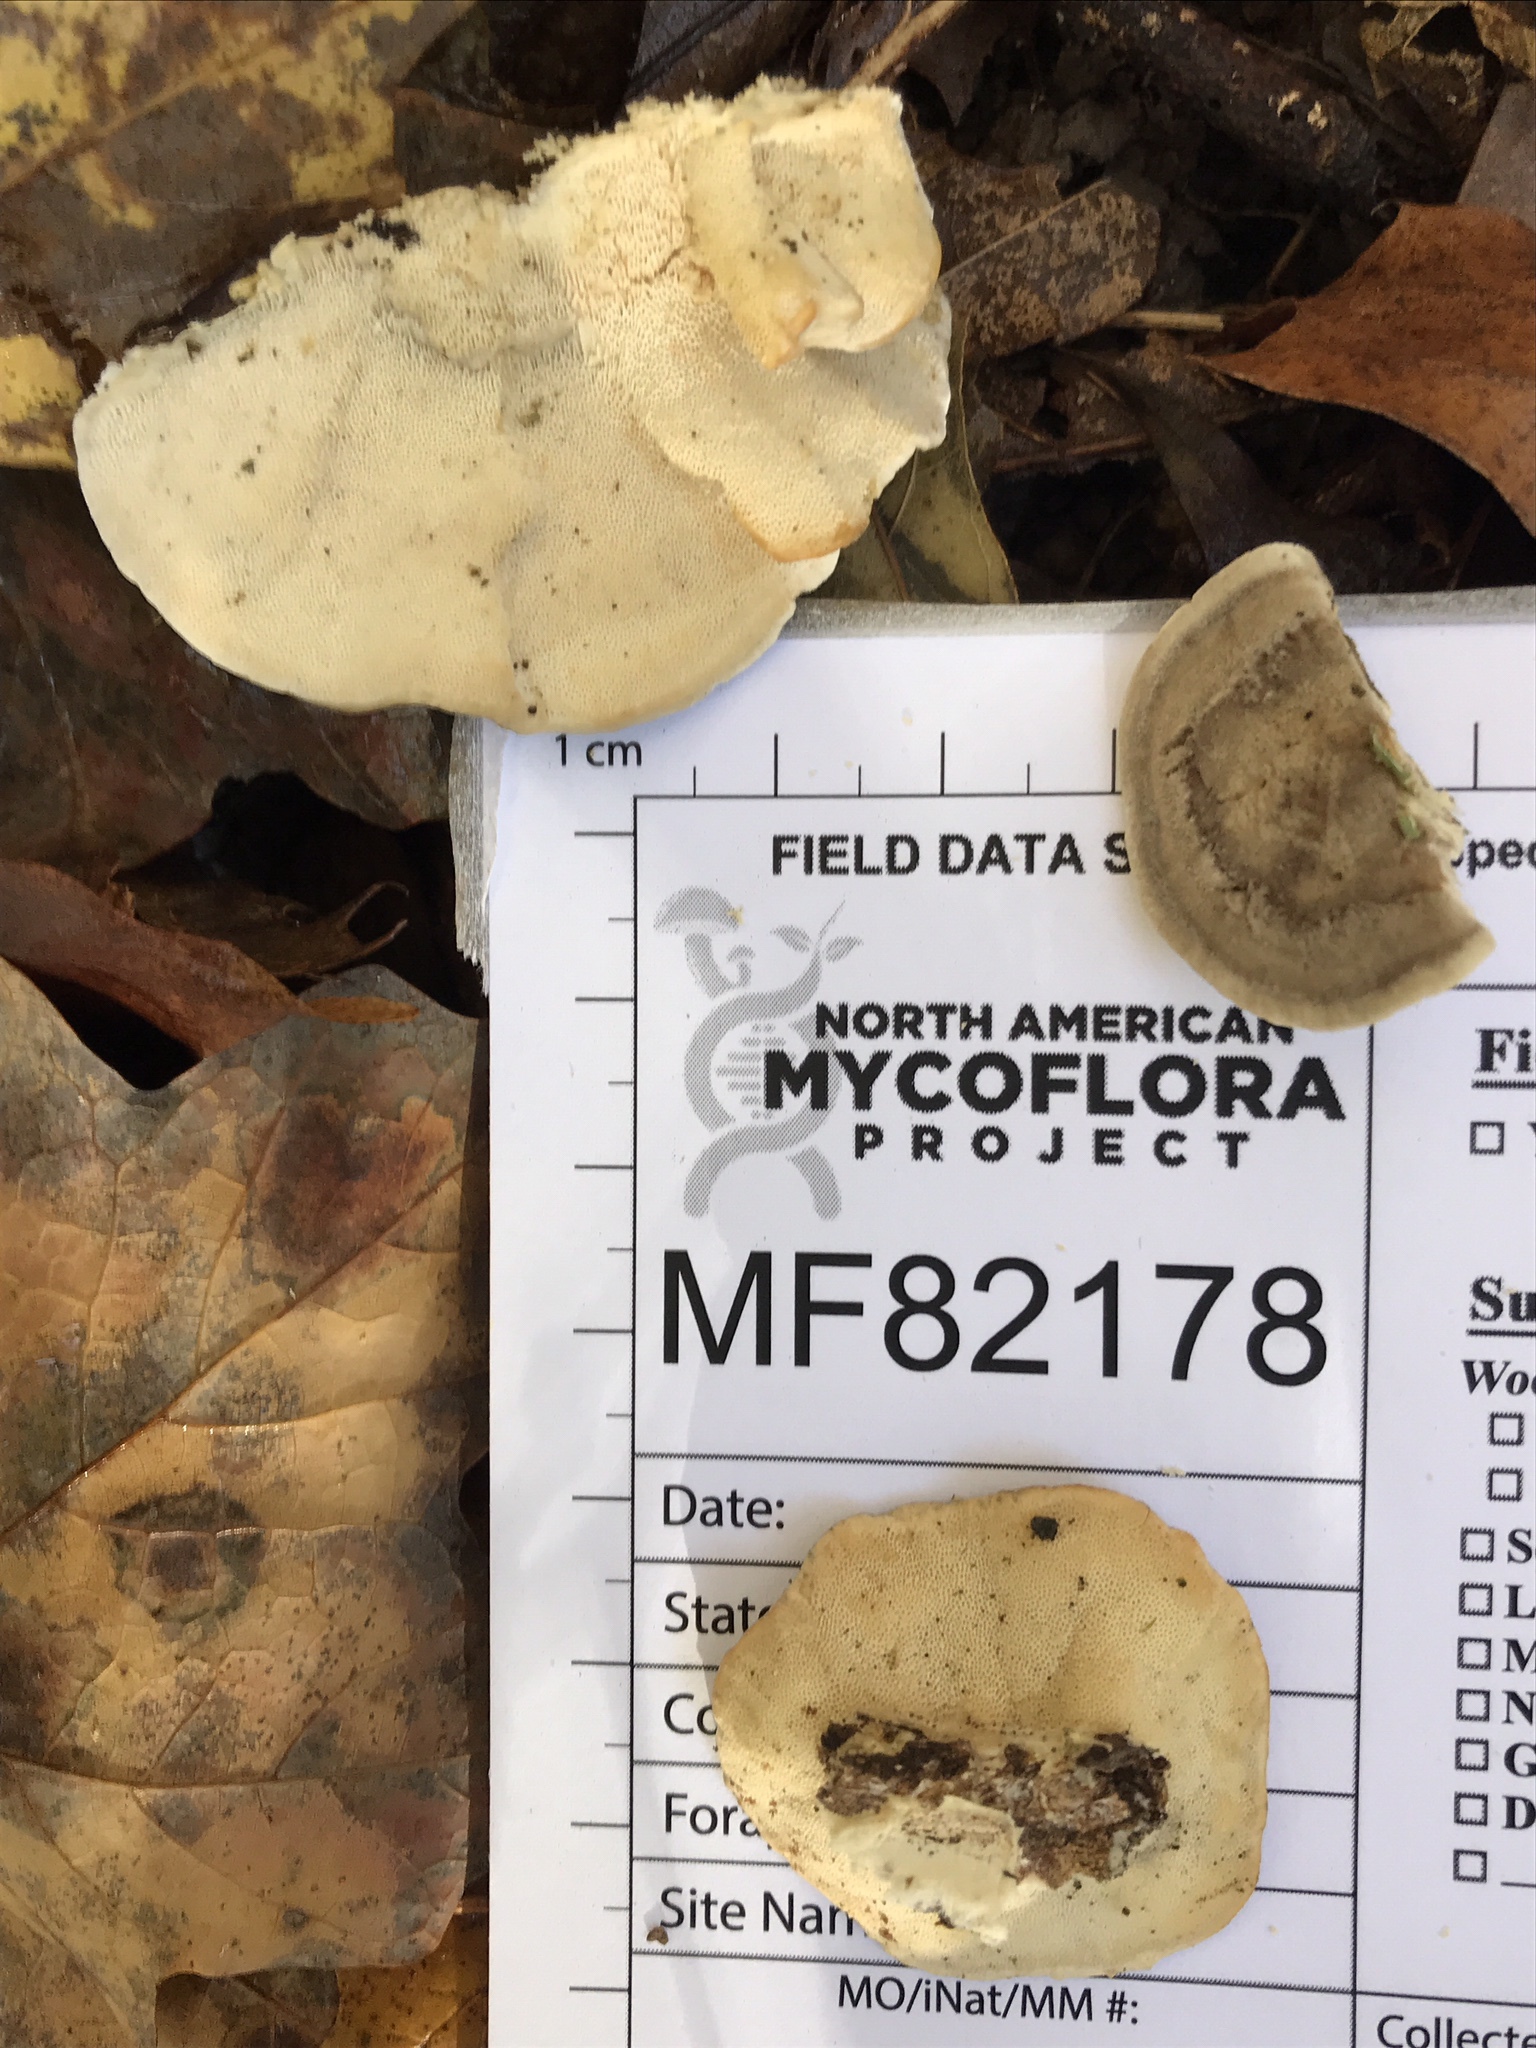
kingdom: Fungi
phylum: Basidiomycota
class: Agaricomycetes
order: Polyporales
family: Polyporaceae
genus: Trametes
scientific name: Trametes hirsuta
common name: Hairy bracket
